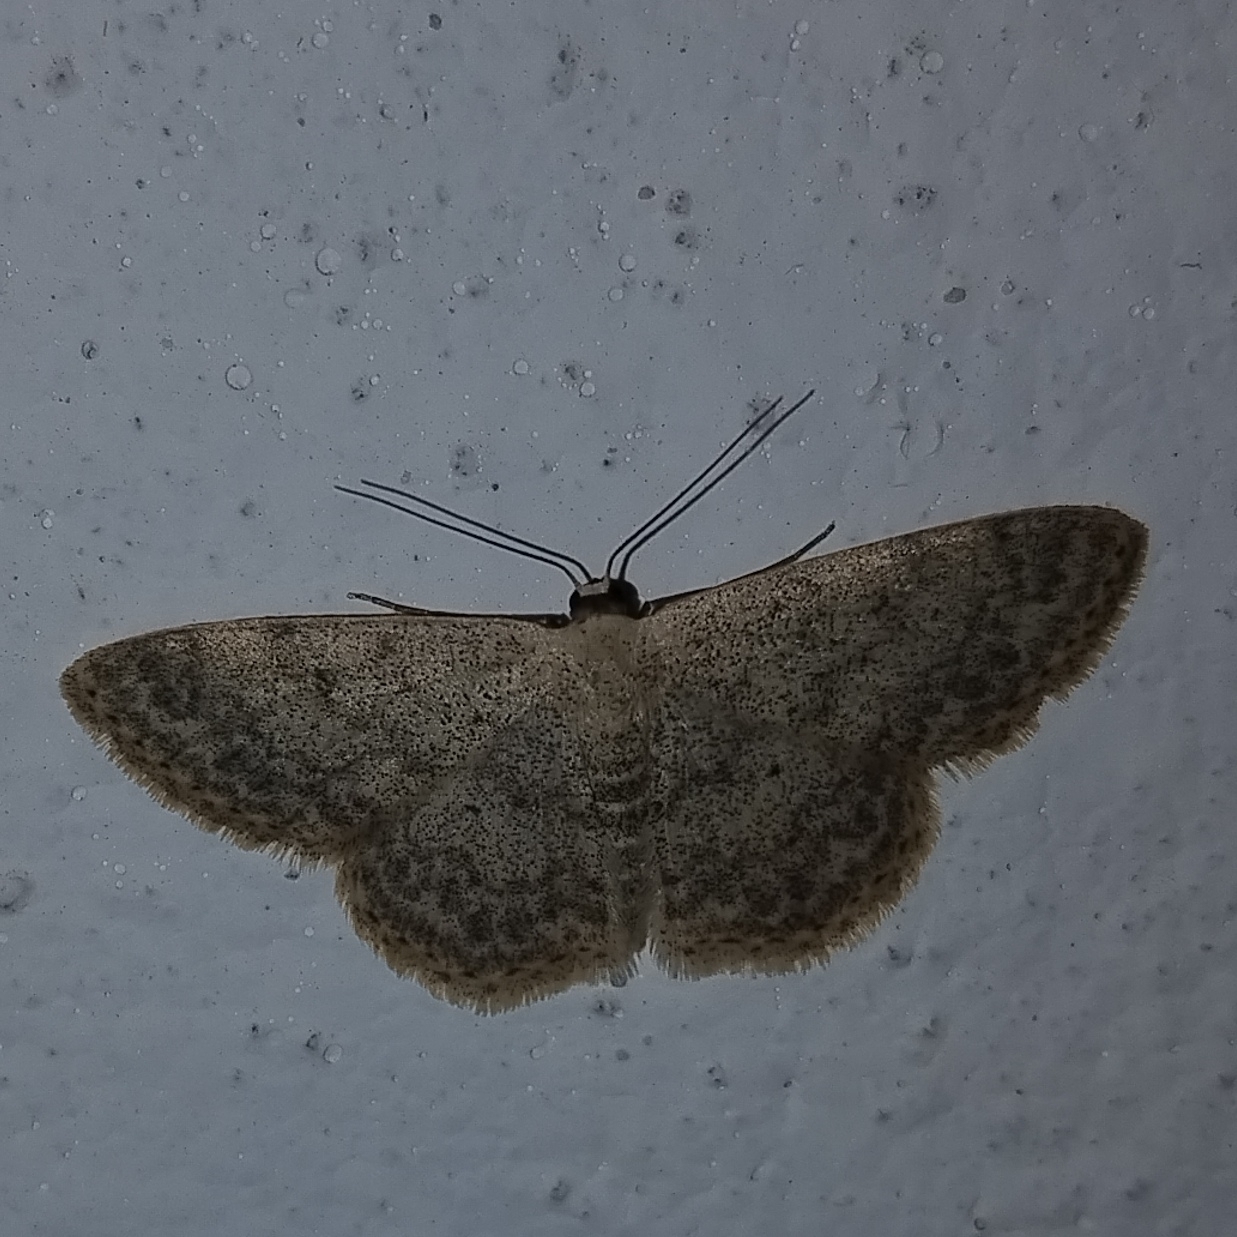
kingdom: Animalia
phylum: Arthropoda
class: Insecta
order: Lepidoptera
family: Geometridae
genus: Scopula
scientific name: Scopula marginepunctata
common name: Mullein wave
